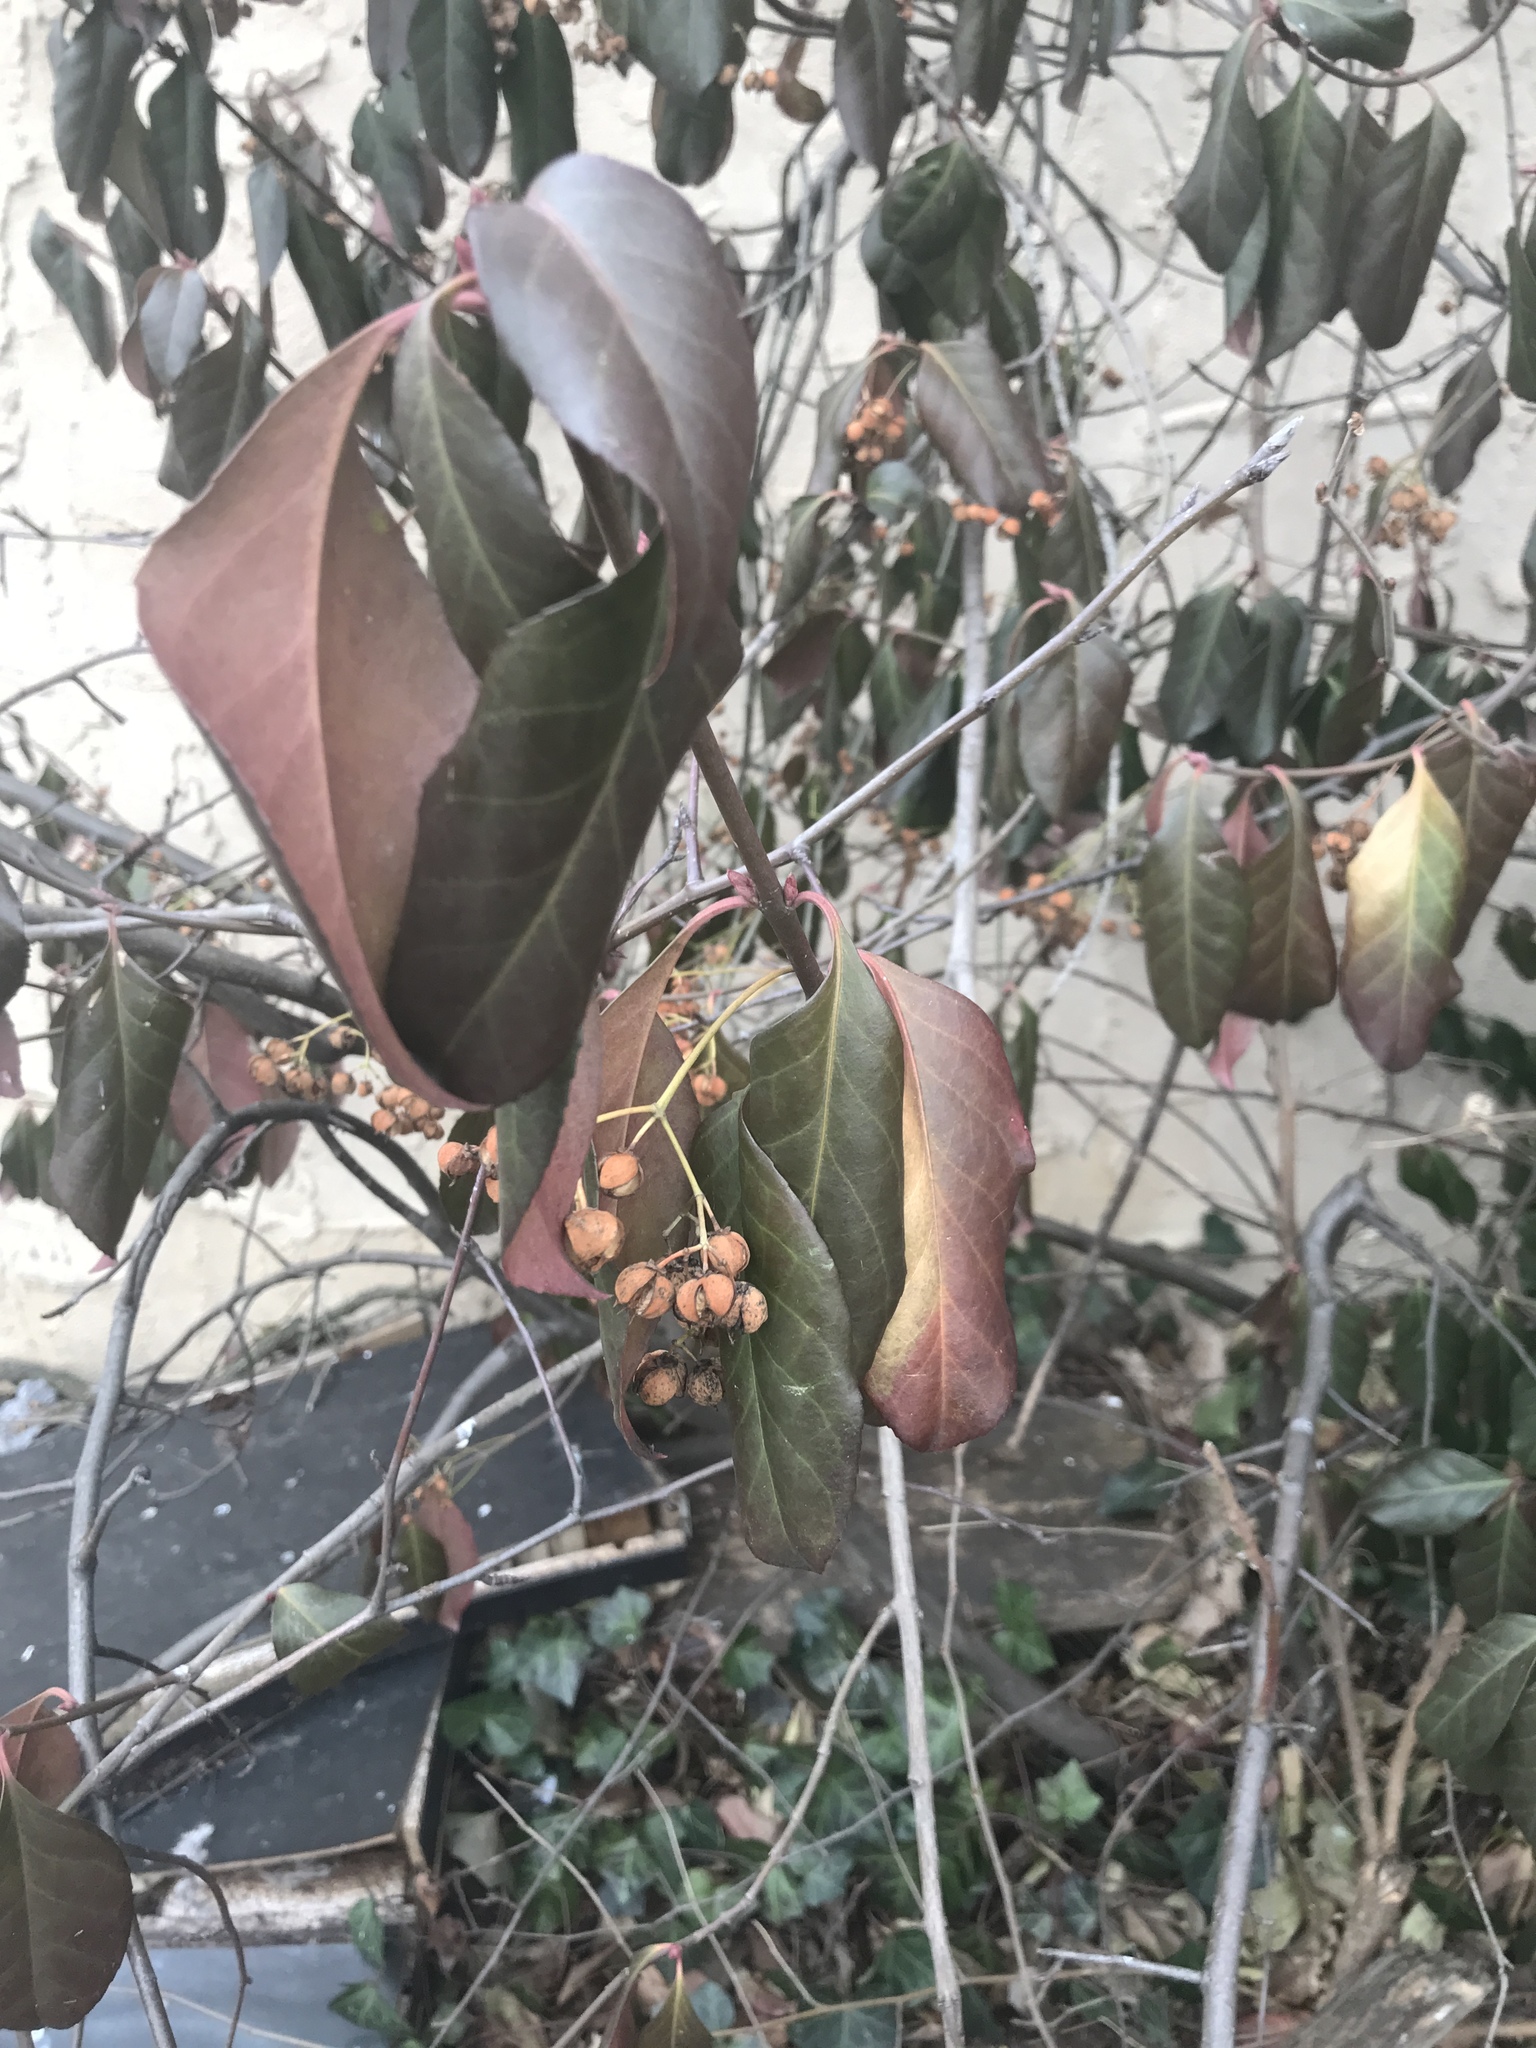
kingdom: Plantae
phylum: Tracheophyta
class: Magnoliopsida
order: Celastrales
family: Celastraceae
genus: Euonymus
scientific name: Euonymus fortunei
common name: Climbing euonymus
